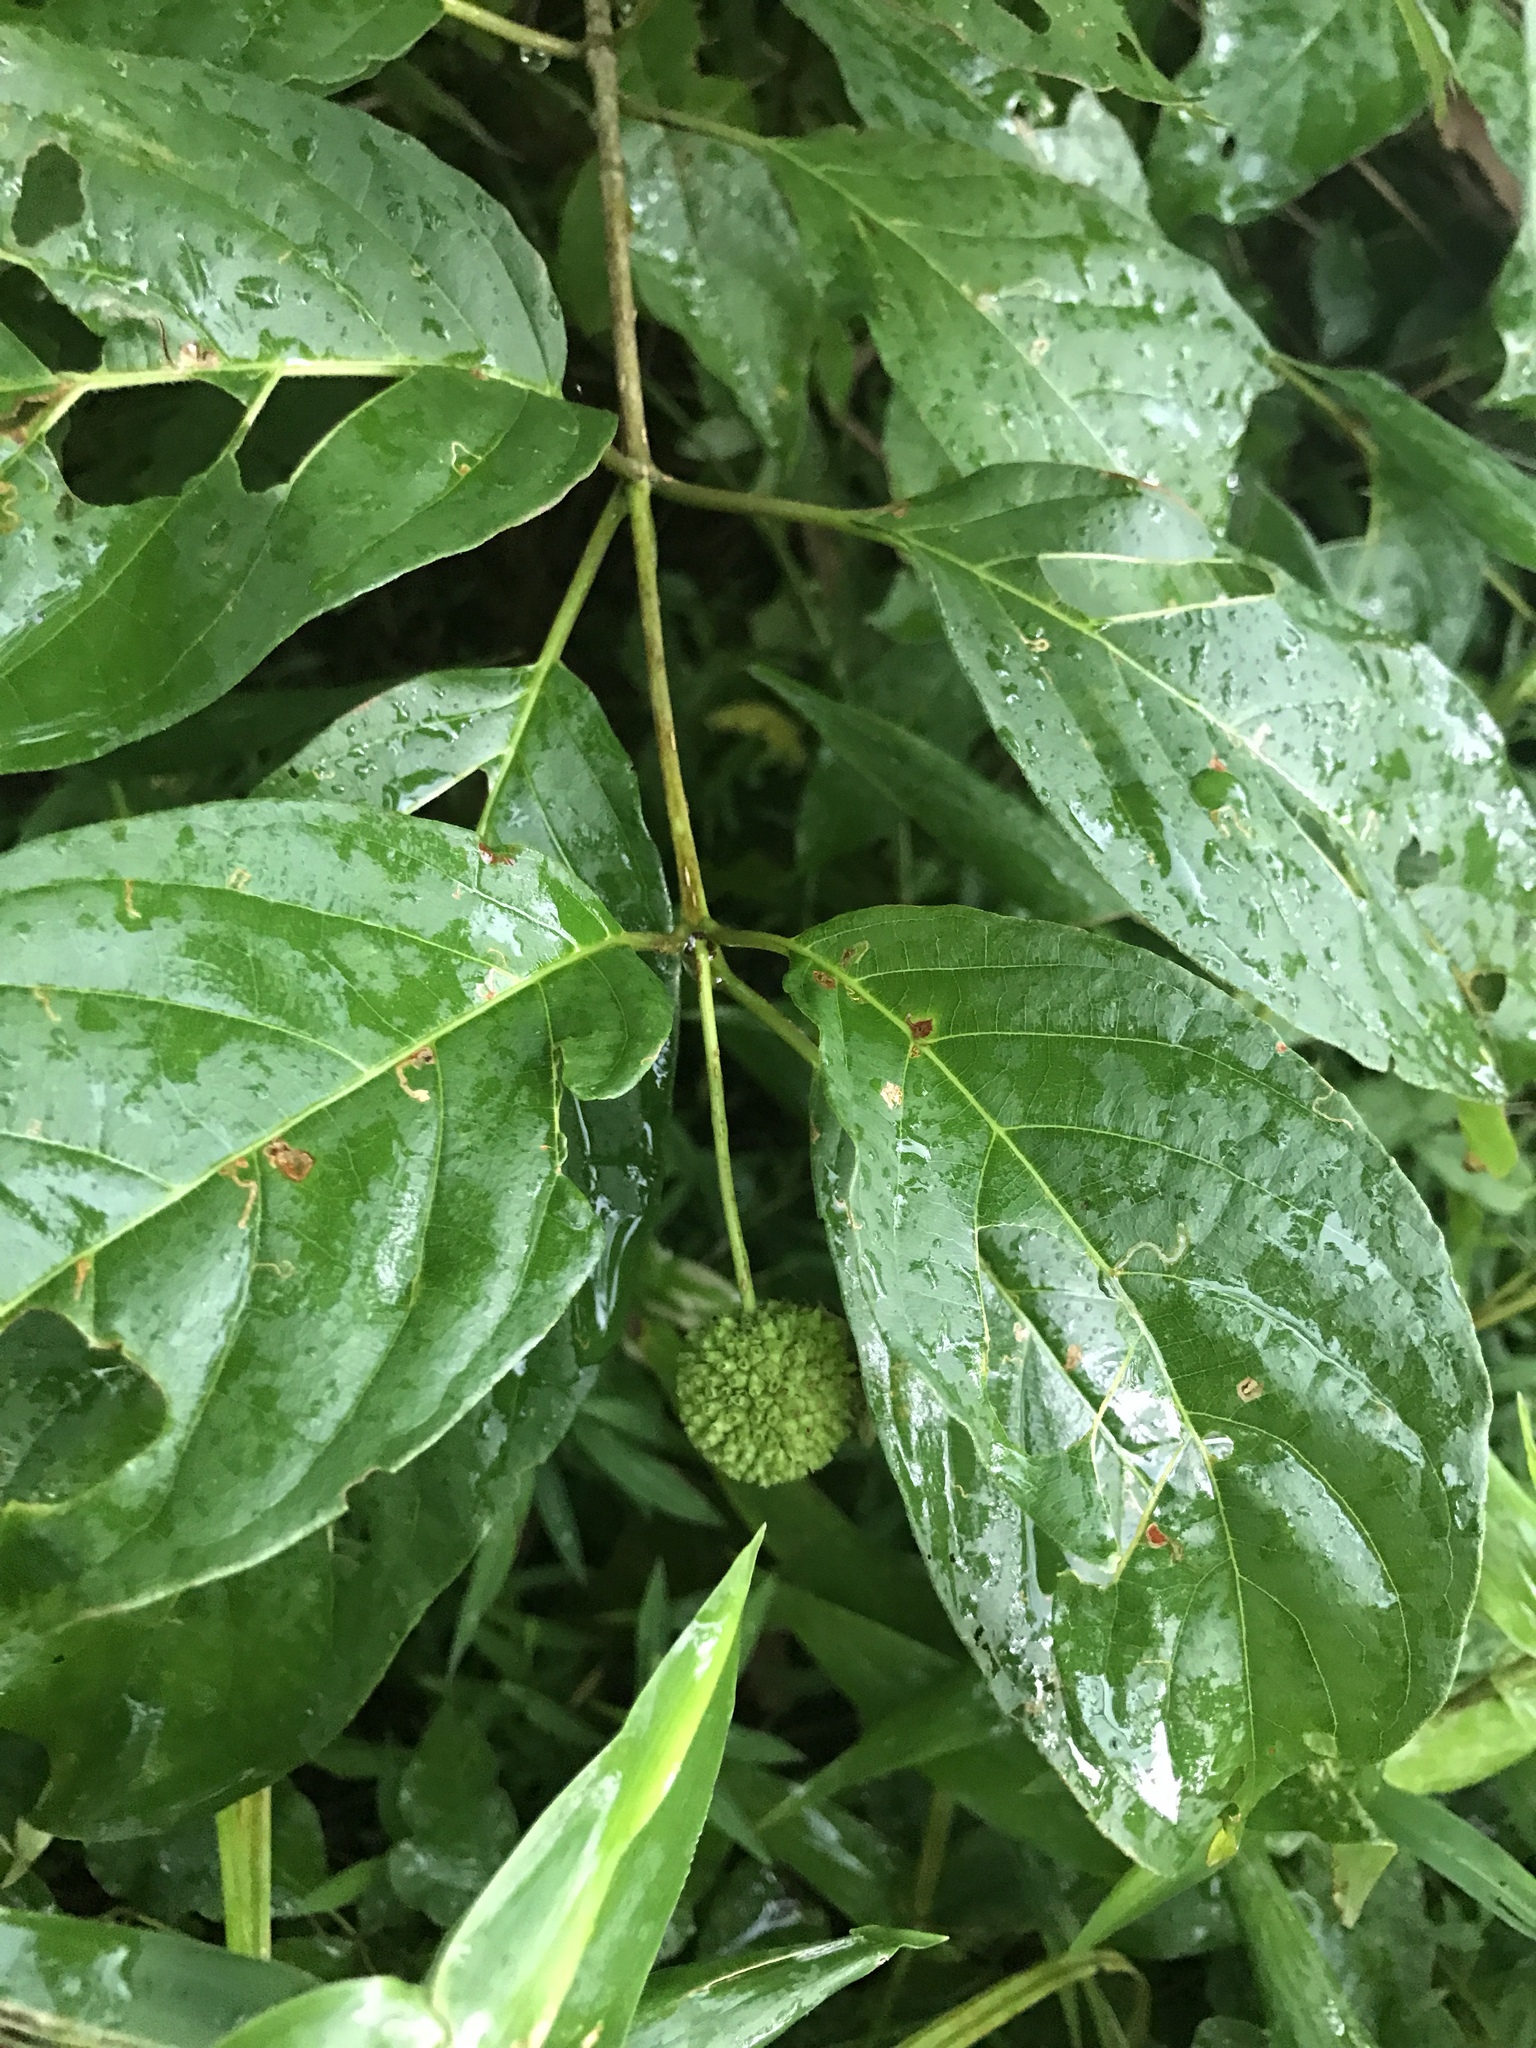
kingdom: Plantae
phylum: Tracheophyta
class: Magnoliopsida
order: Gentianales
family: Rubiaceae
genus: Cephalanthus
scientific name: Cephalanthus occidentalis
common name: Button-willow
